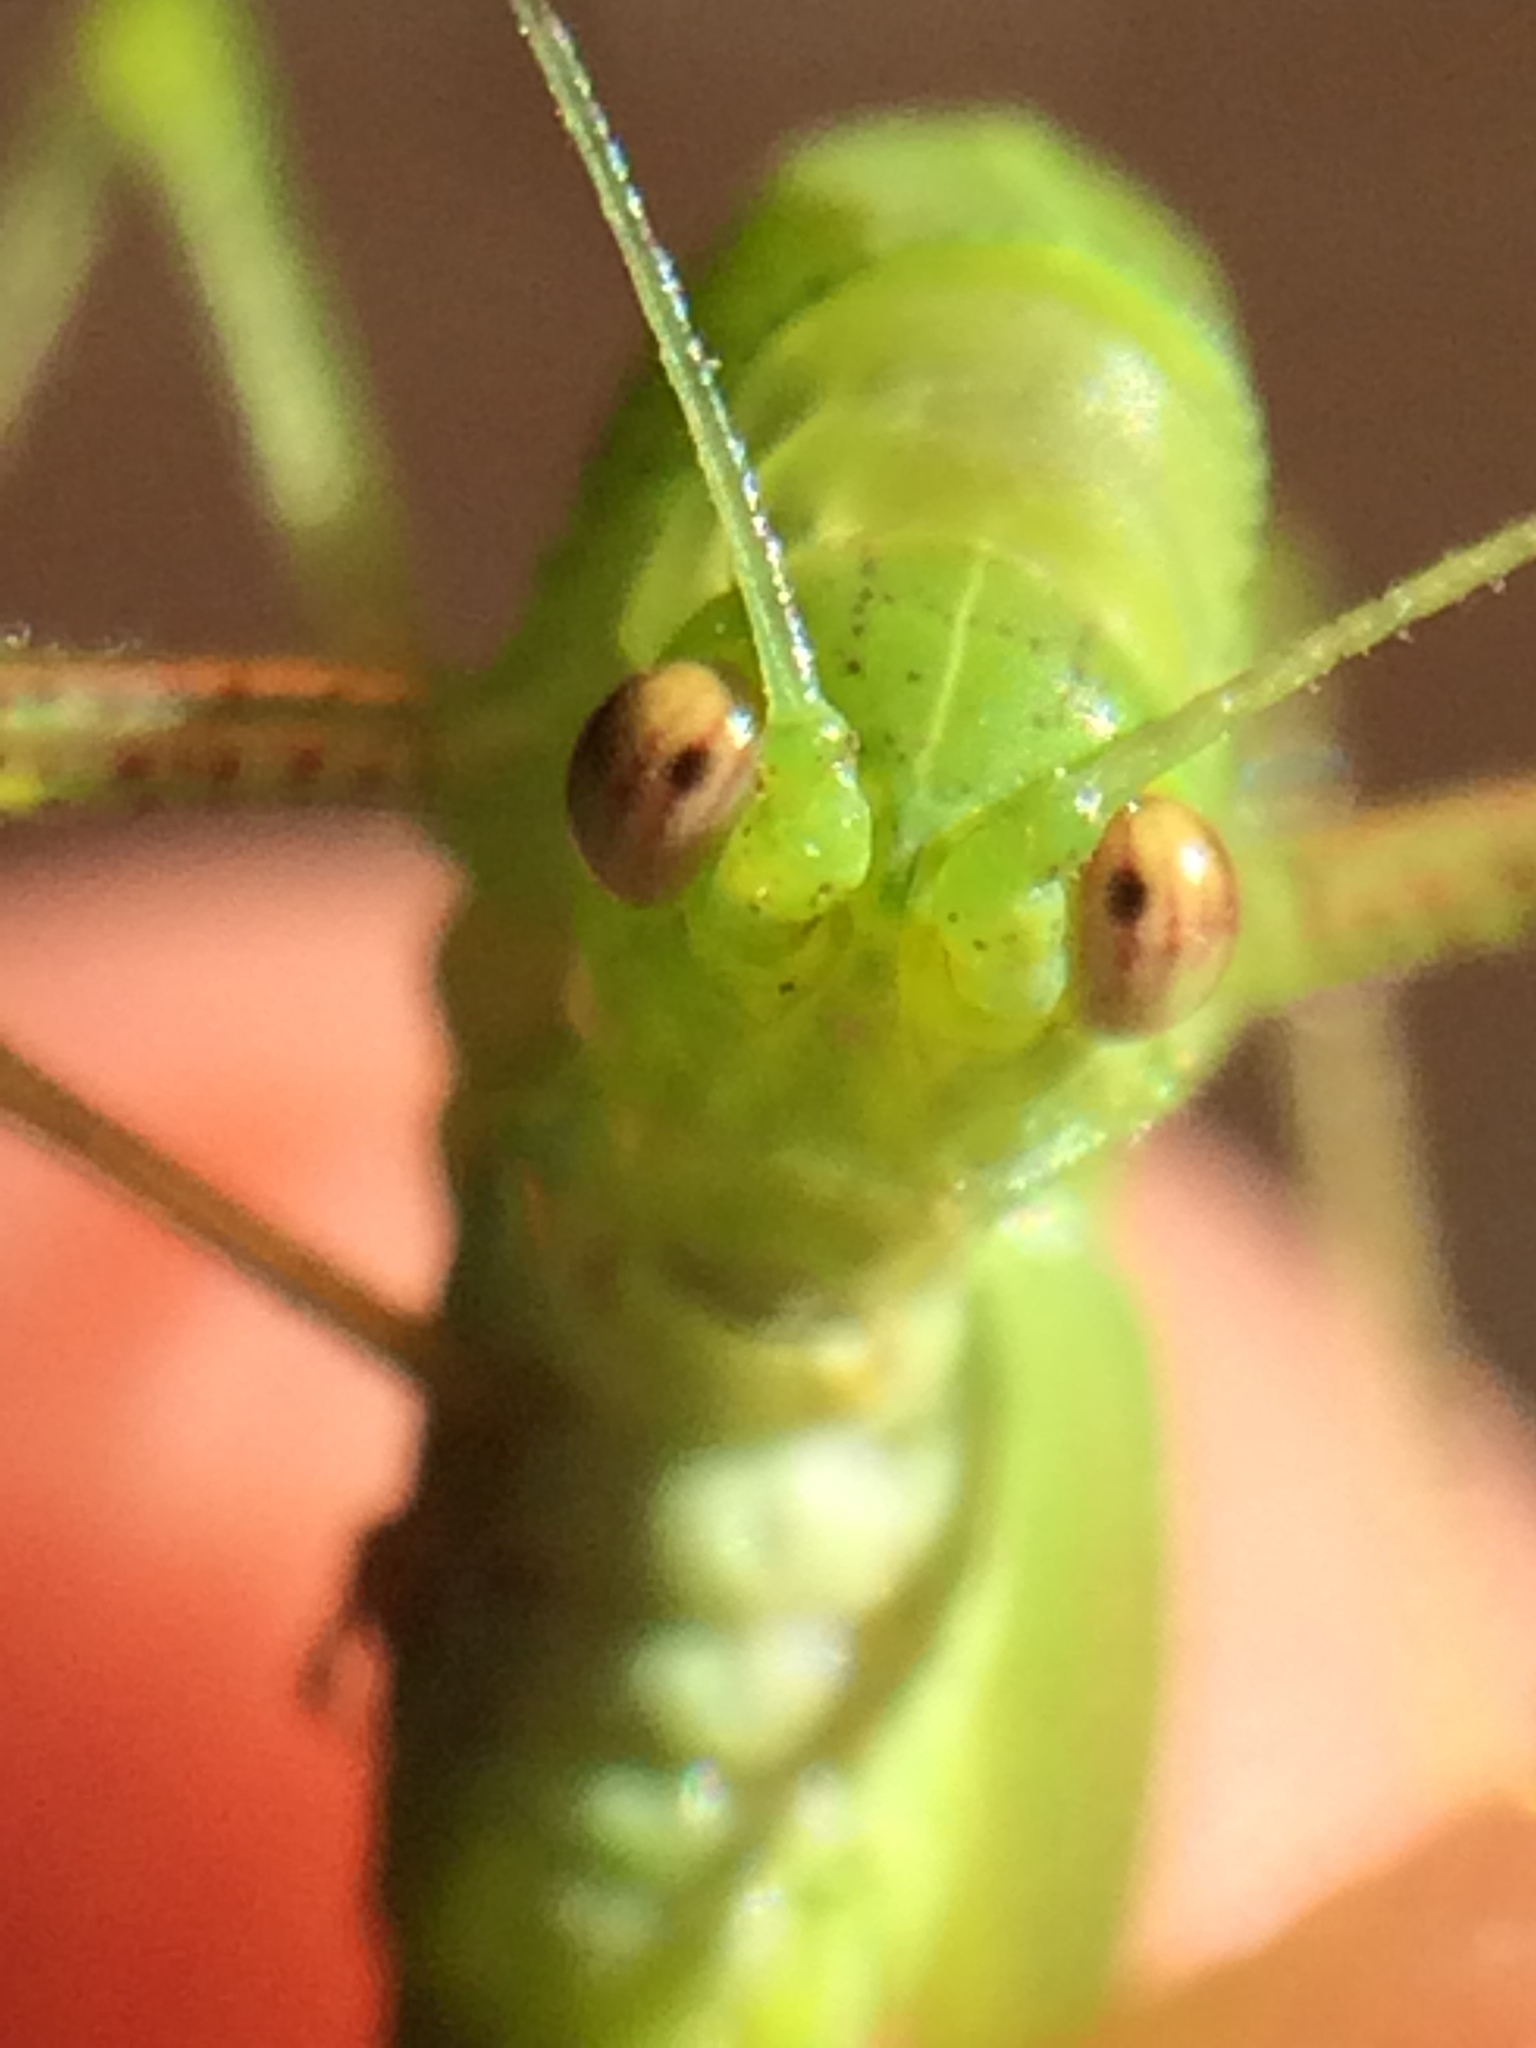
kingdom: Animalia
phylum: Arthropoda
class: Insecta
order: Orthoptera
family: Tettigoniidae
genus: Phaneroptera
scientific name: Phaneroptera nana
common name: Southern sickle bush-cricket
